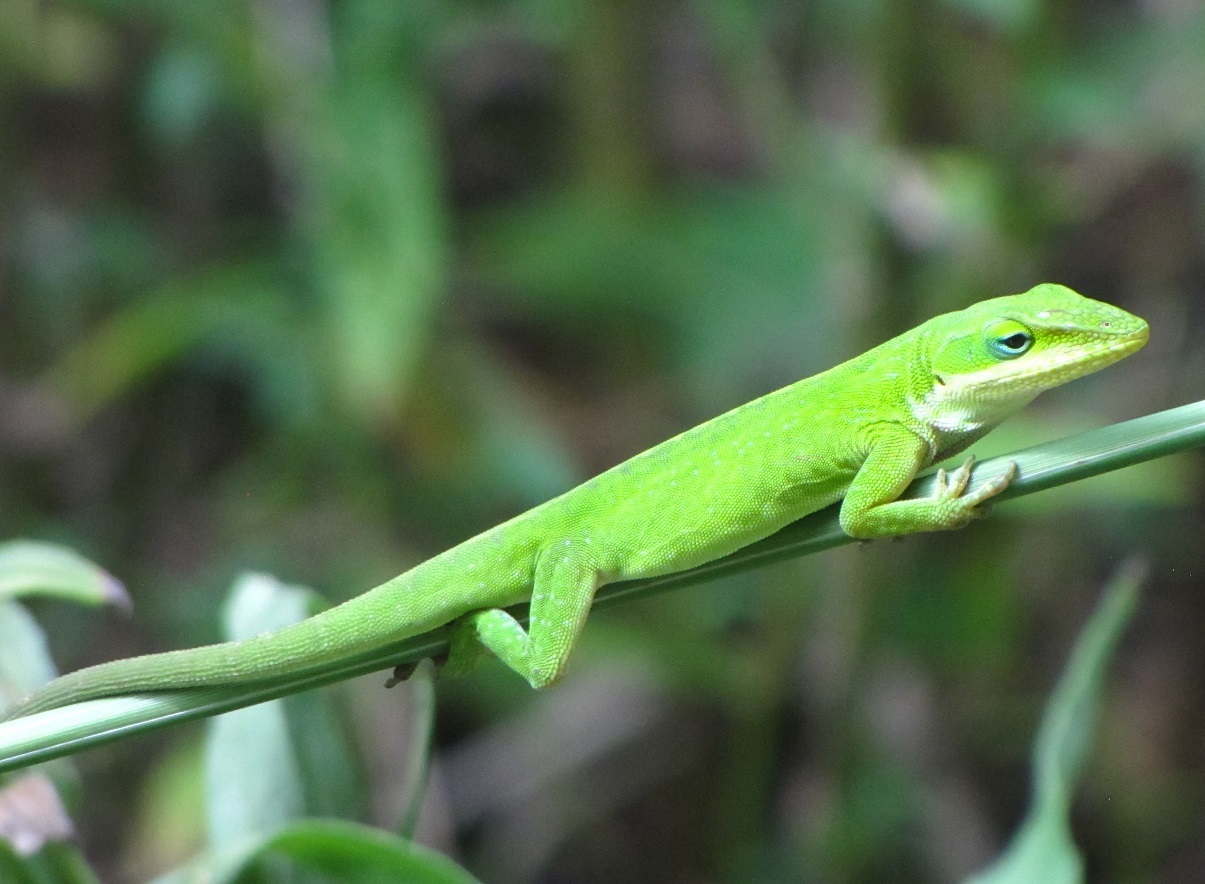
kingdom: Animalia
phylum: Chordata
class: Squamata
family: Dactyloidae
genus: Anolis
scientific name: Anolis carolinensis
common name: Green anole
